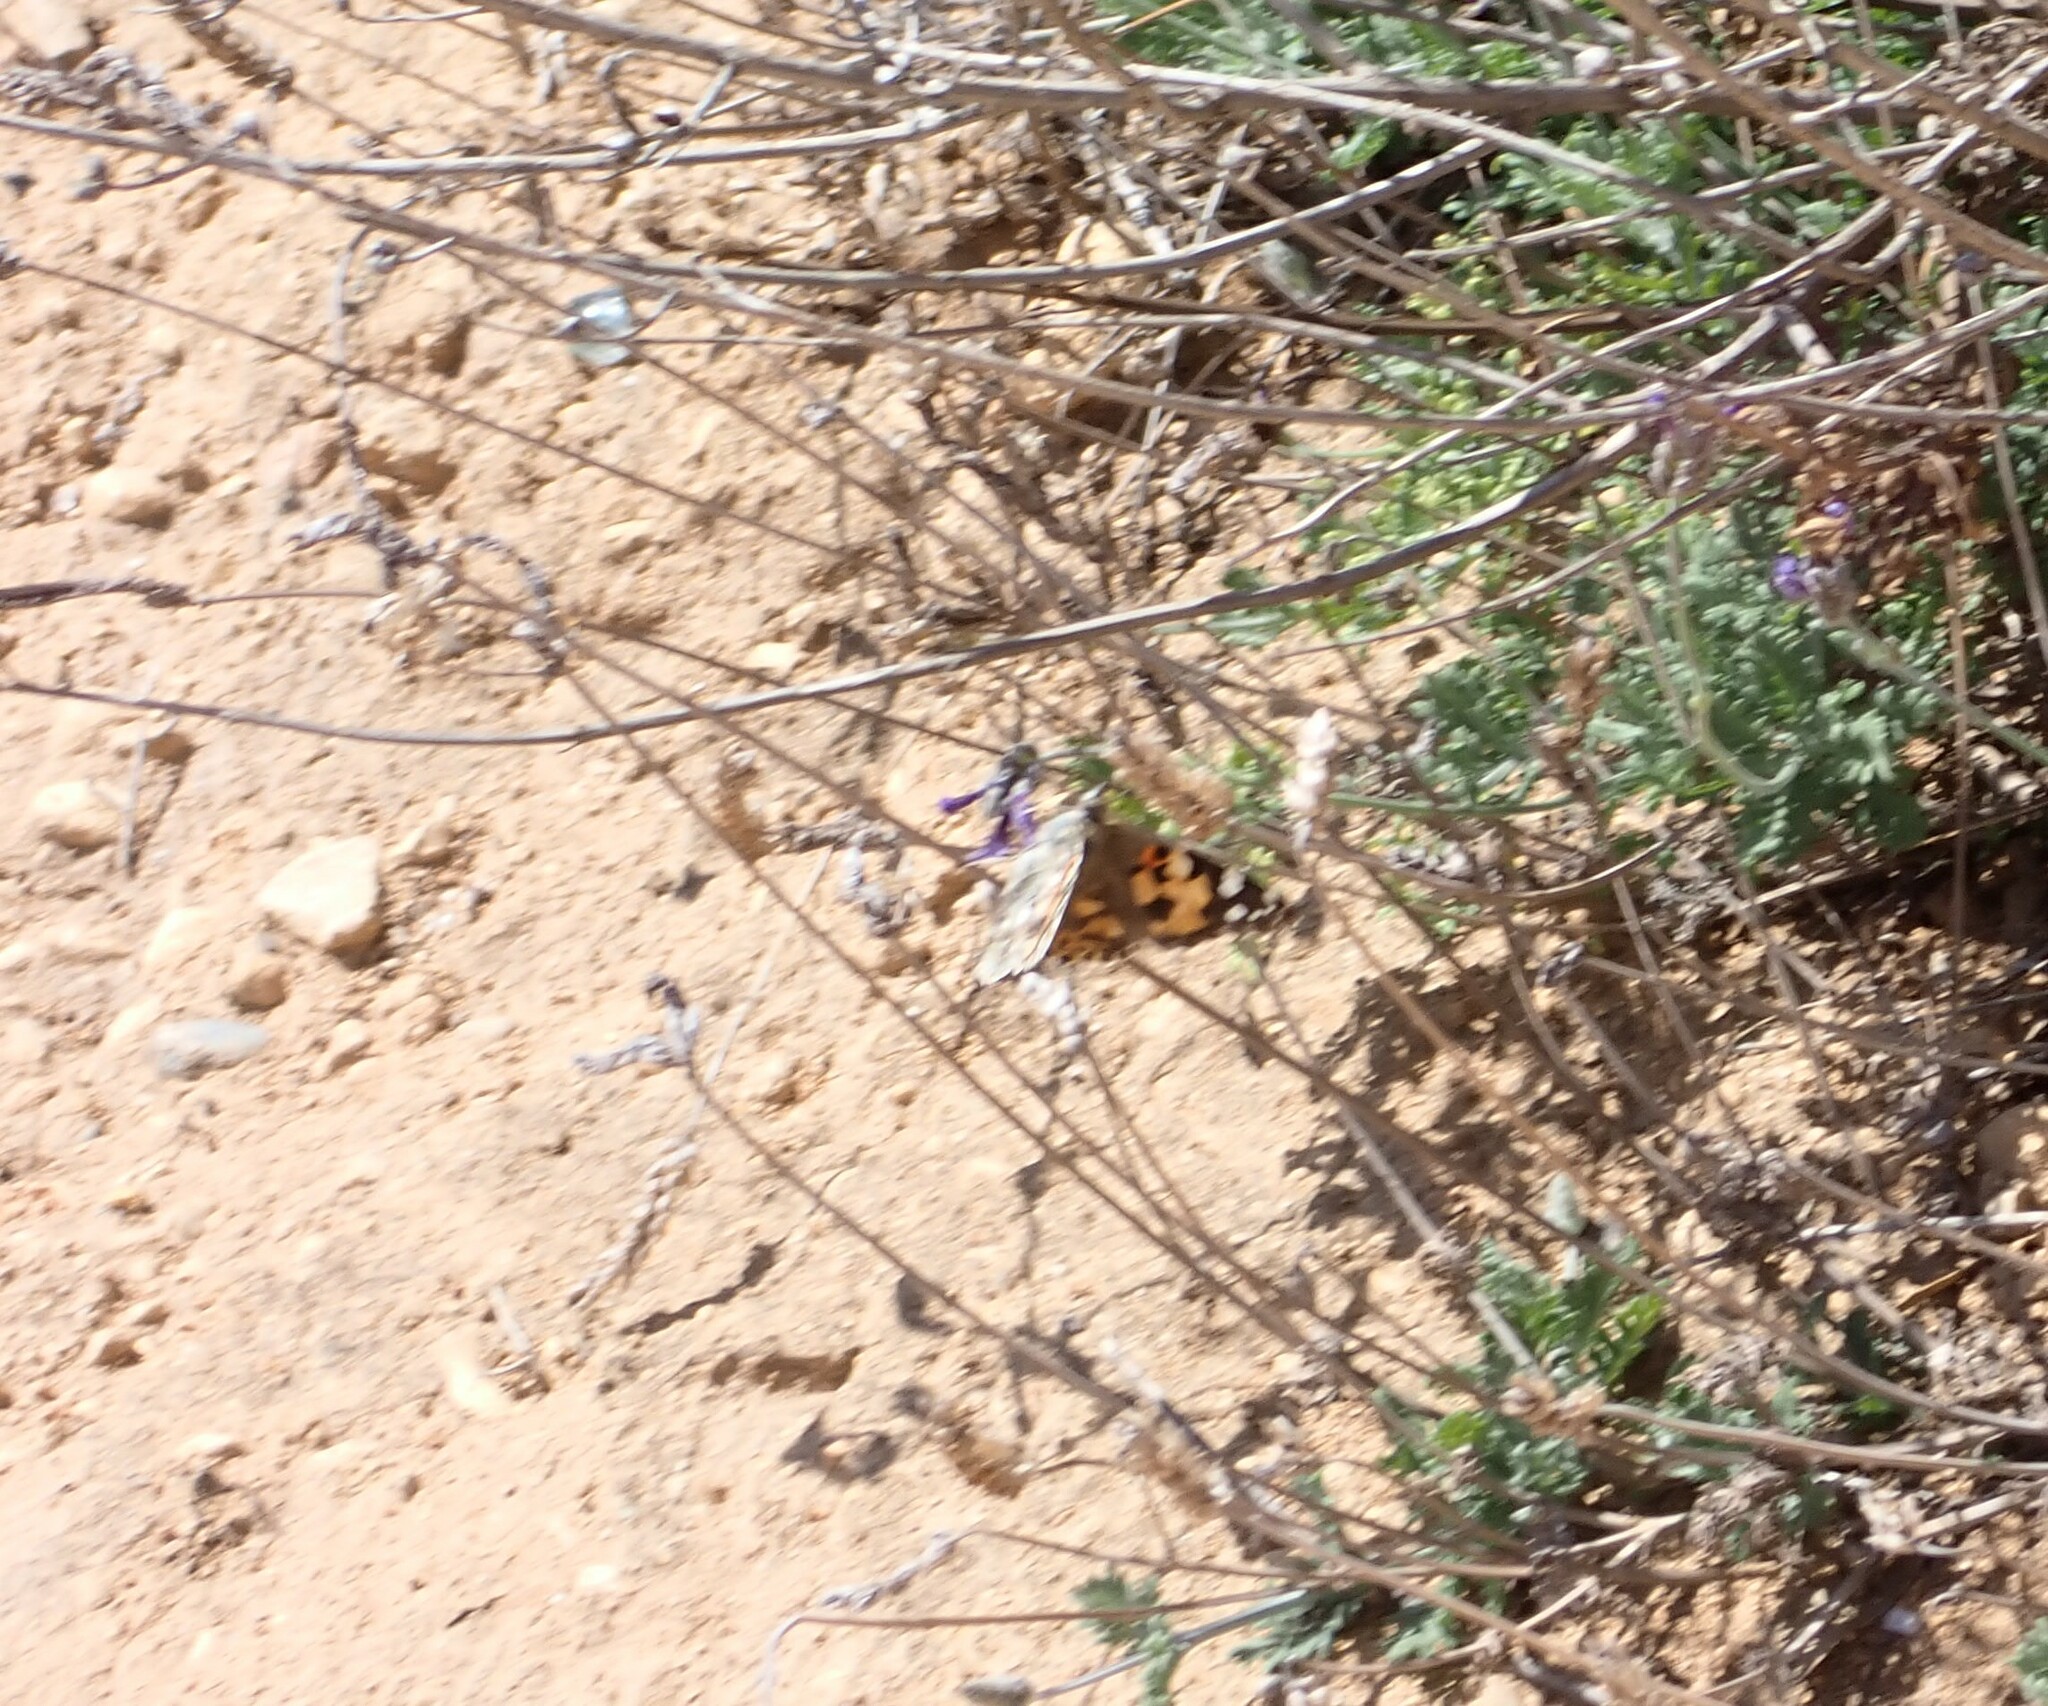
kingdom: Animalia
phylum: Arthropoda
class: Insecta
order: Lepidoptera
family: Nymphalidae
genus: Vanessa
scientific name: Vanessa cardui
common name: Painted lady
